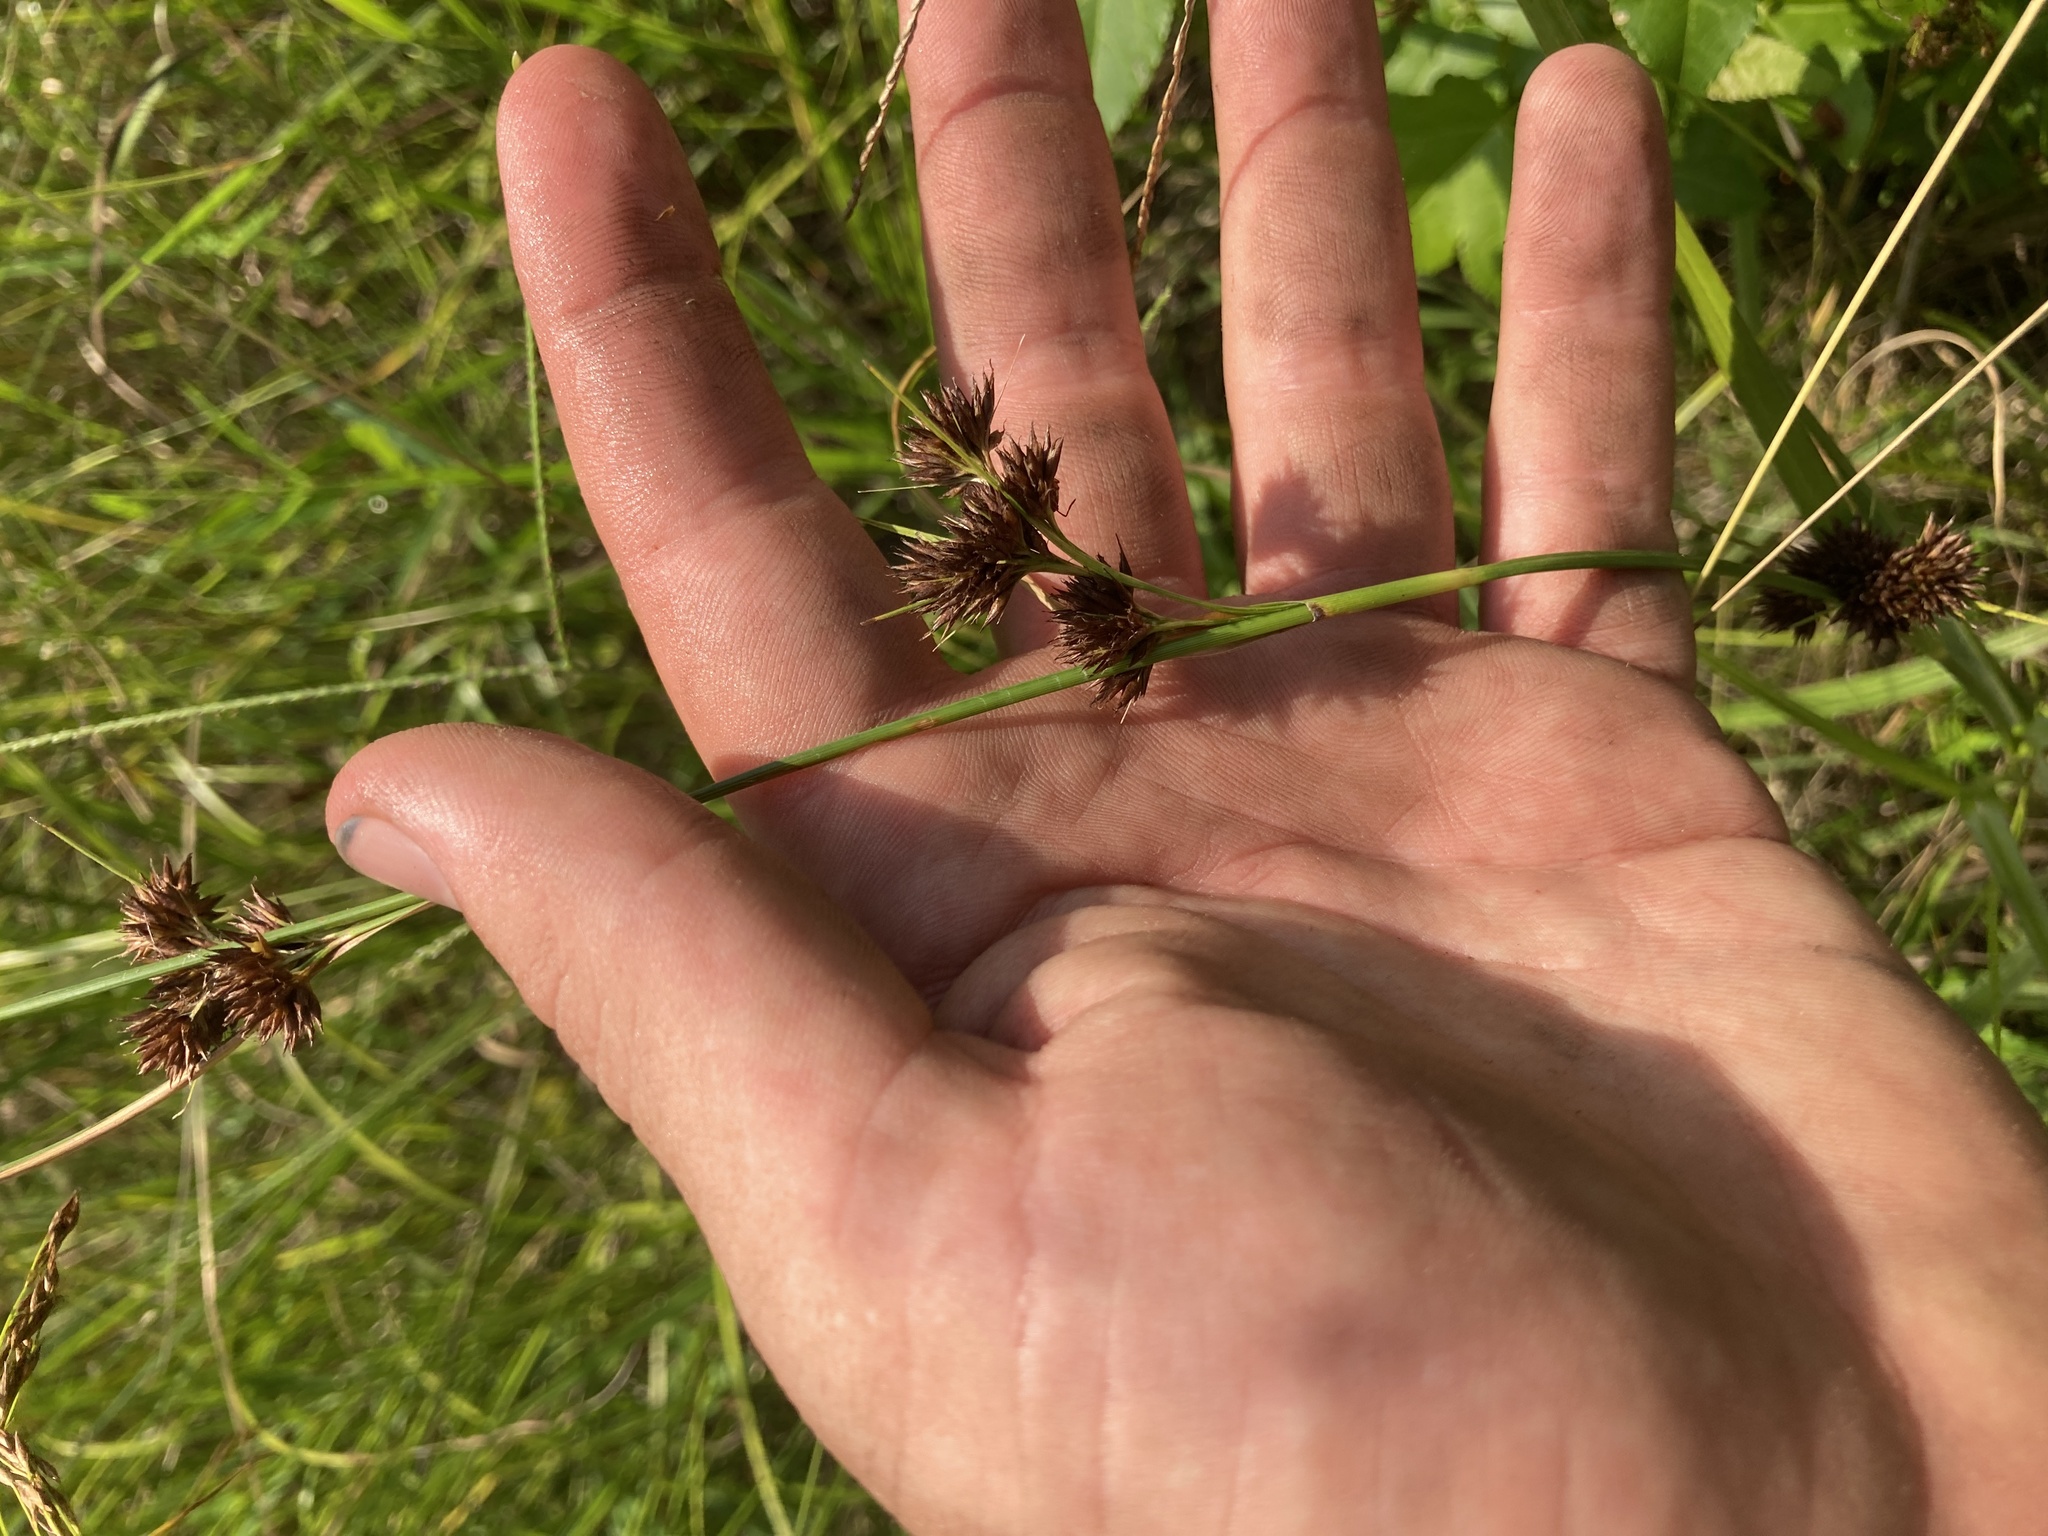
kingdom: Plantae
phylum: Tracheophyta
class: Liliopsida
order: Poales
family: Cyperaceae
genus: Rhynchospora
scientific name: Rhynchospora recognita
